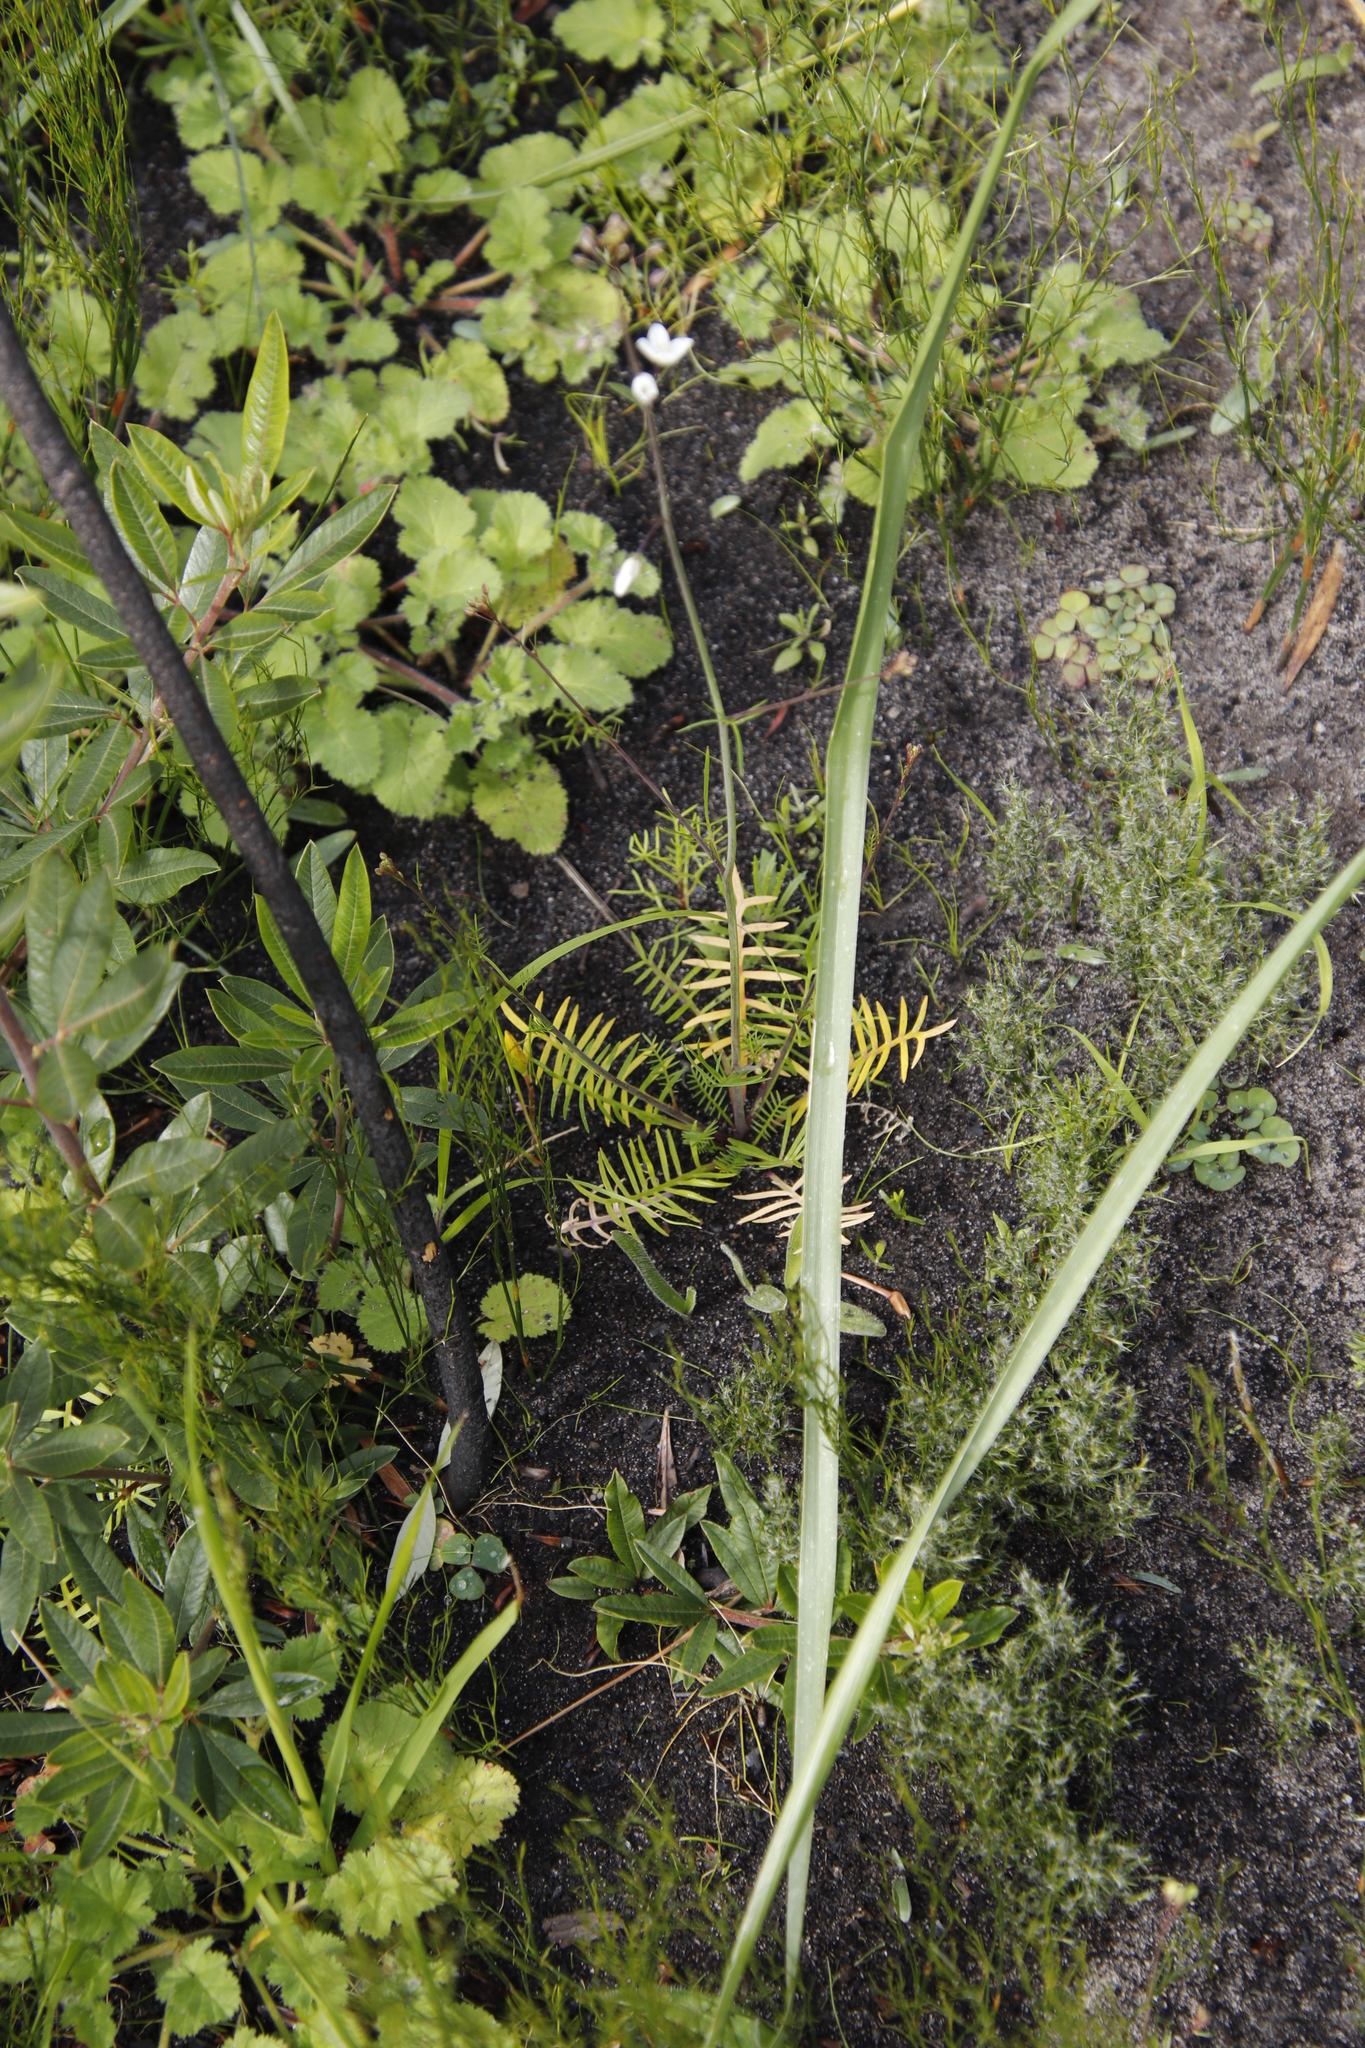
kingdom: Plantae
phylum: Tracheophyta
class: Magnoliopsida
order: Brassicales
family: Brassicaceae
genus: Heliophila
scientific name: Heliophila meyeri
